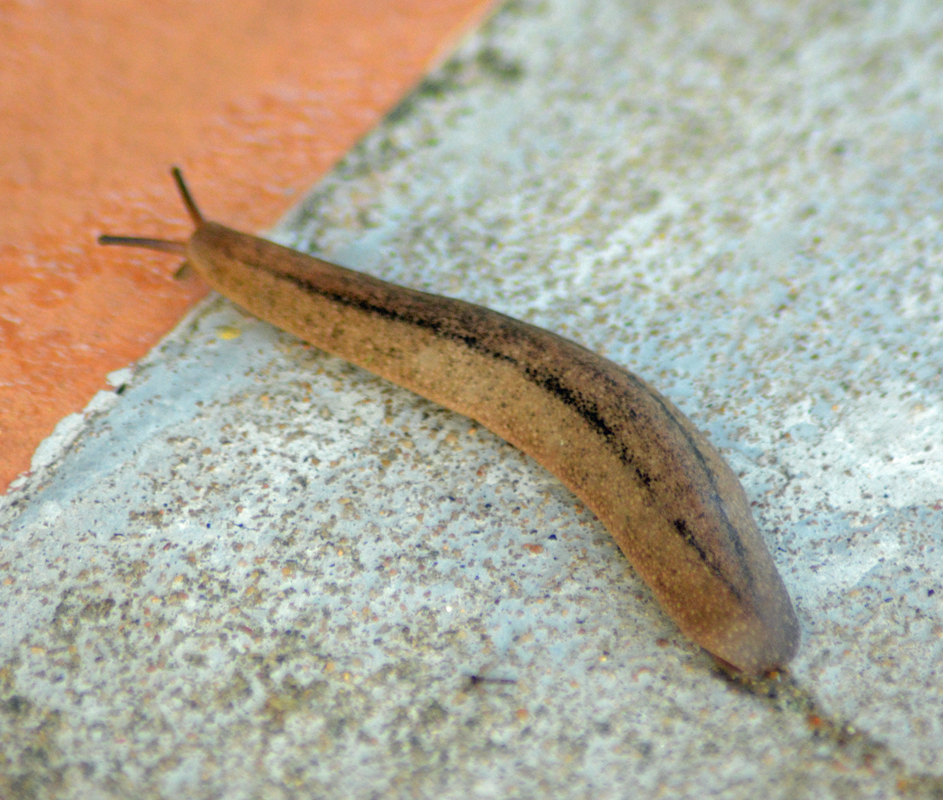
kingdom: Animalia
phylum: Mollusca
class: Gastropoda
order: Systellommatophora
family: Veronicellidae
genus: Leidyula
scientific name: Leidyula moreleti
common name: Tan leatherleaf
